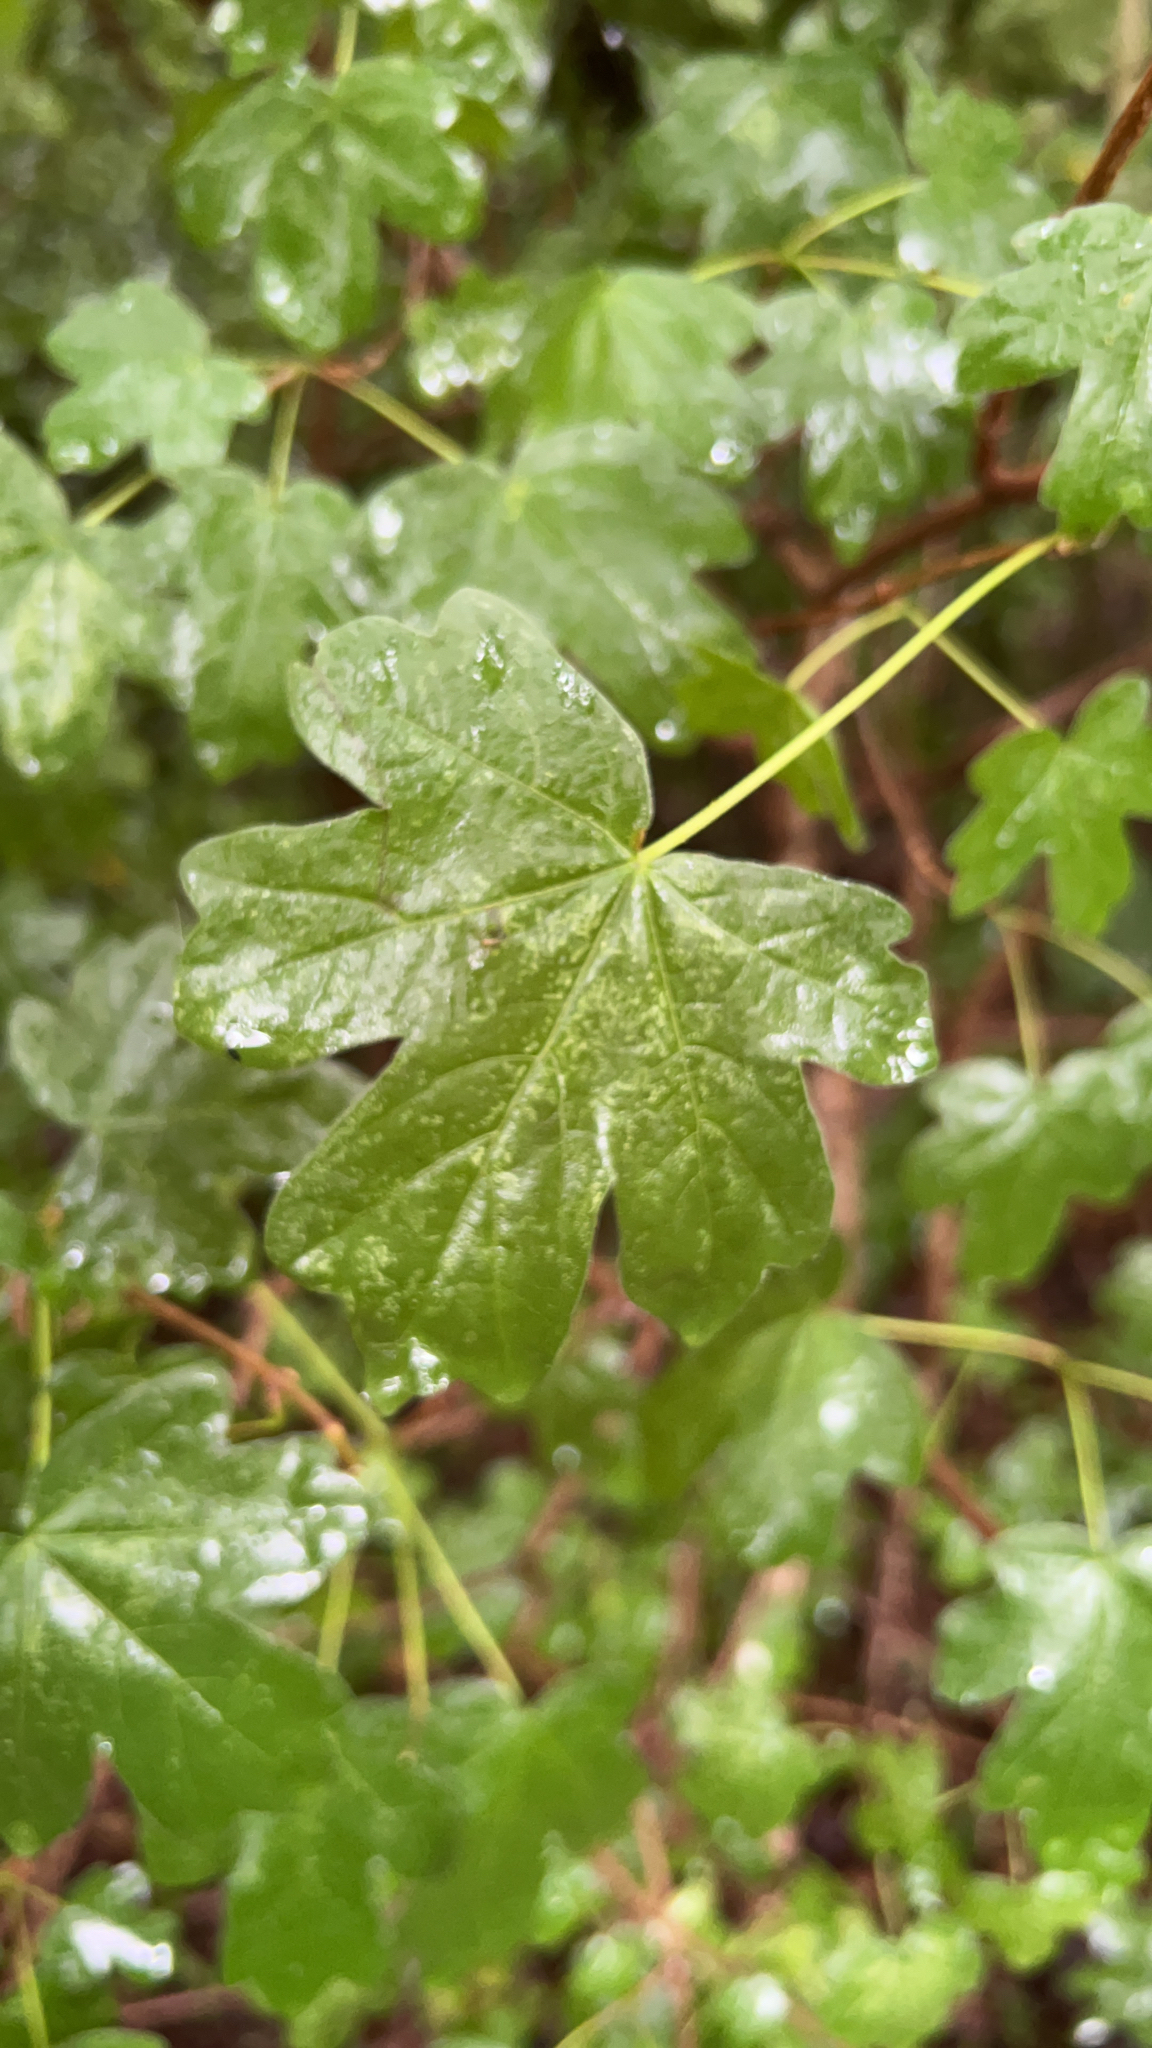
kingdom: Plantae
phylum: Tracheophyta
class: Magnoliopsida
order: Sapindales
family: Sapindaceae
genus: Acer
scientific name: Acer campestre
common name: Field maple
